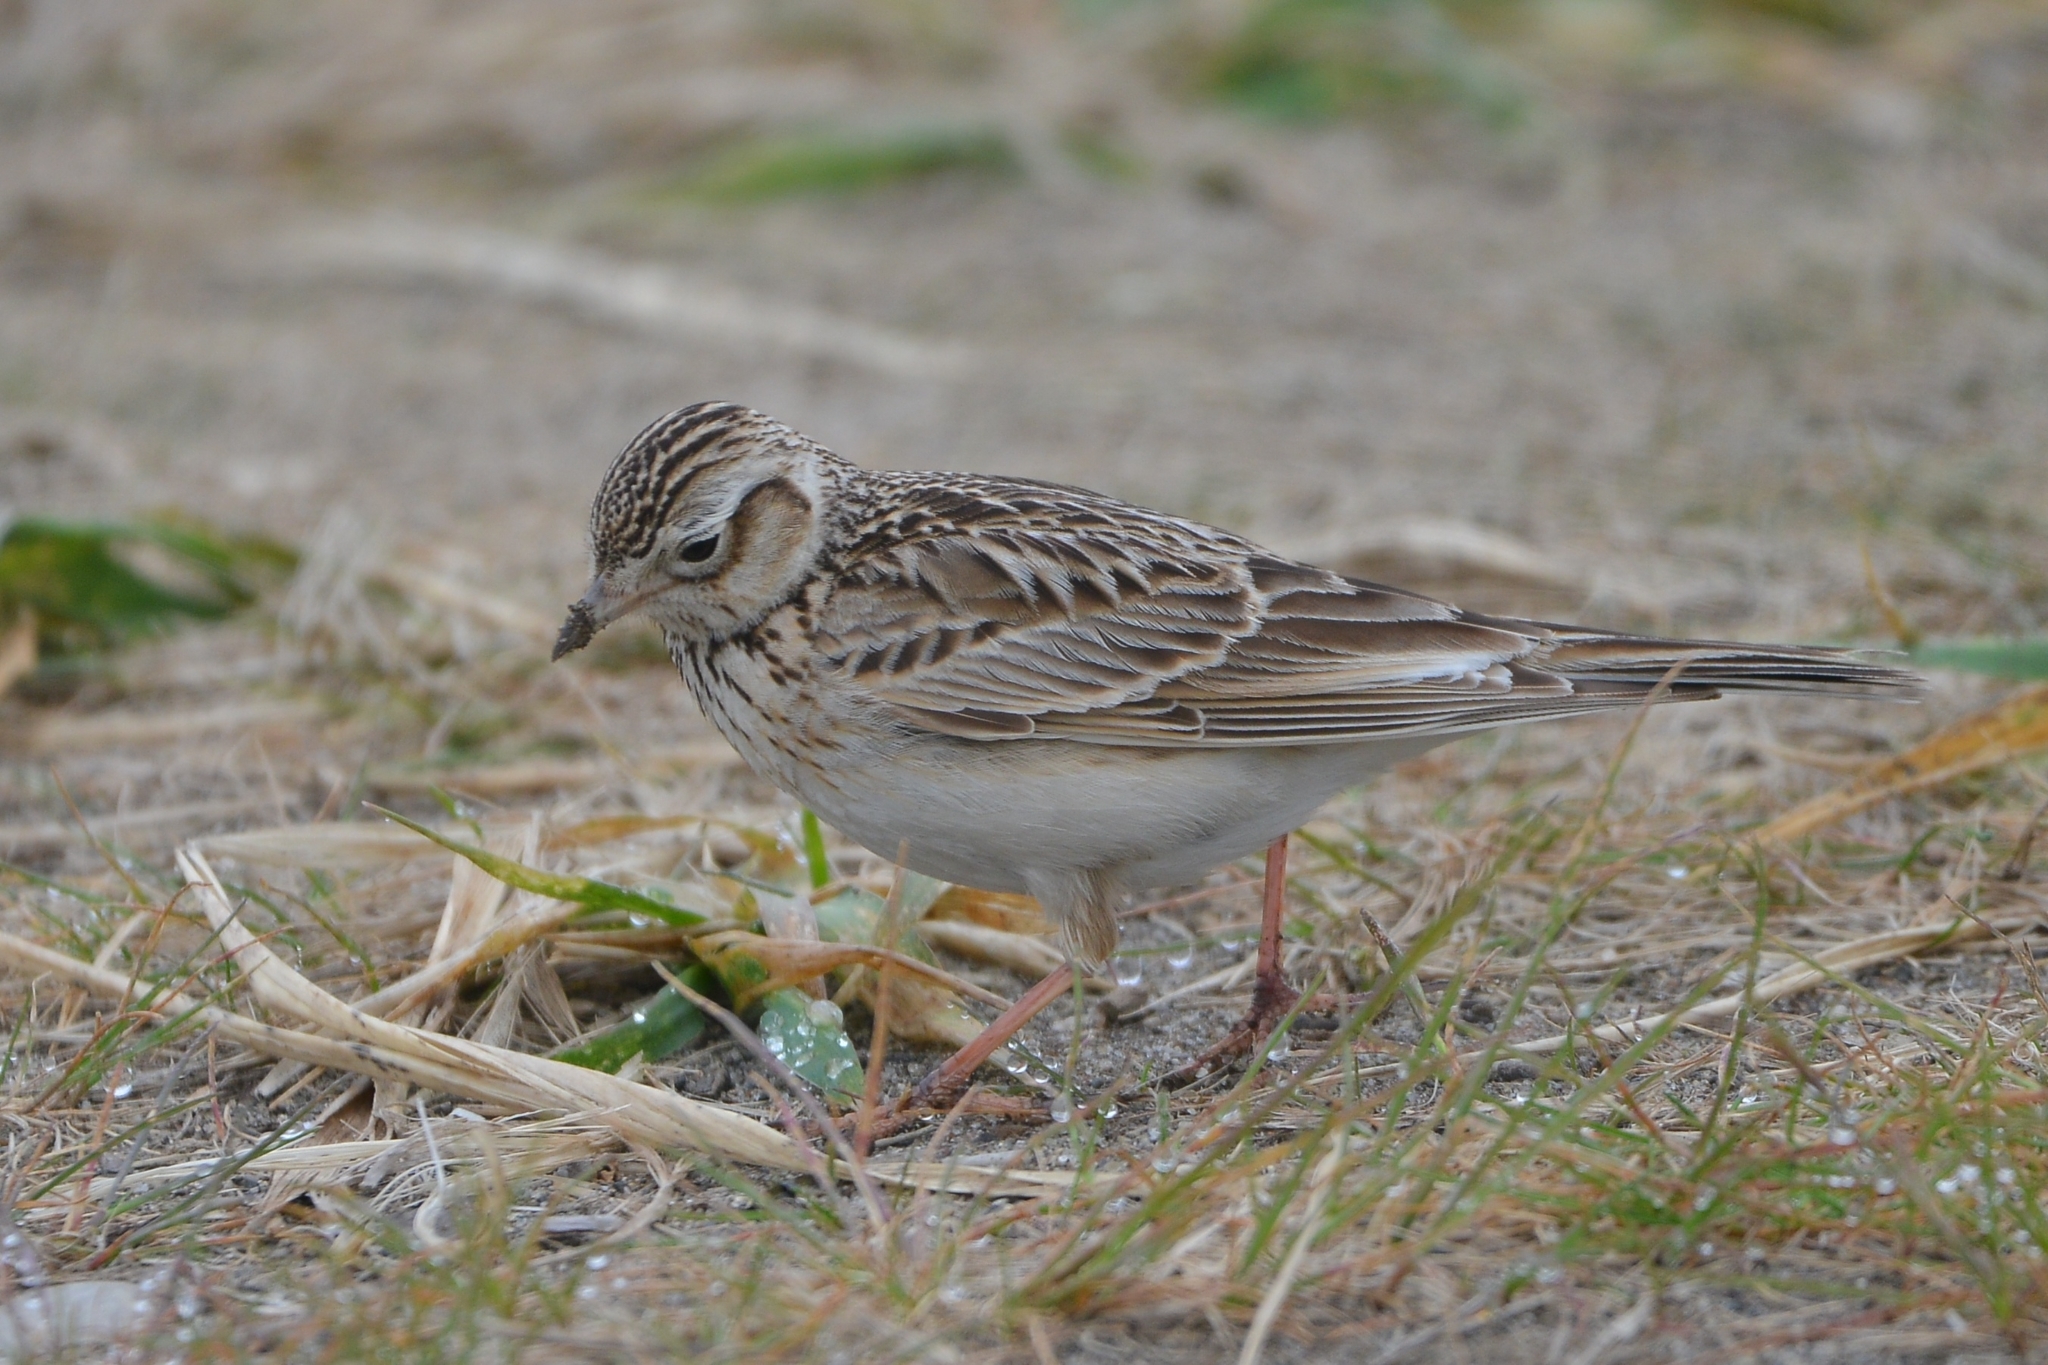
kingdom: Animalia
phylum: Chordata
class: Aves
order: Passeriformes
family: Alaudidae
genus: Alauda
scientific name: Alauda arvensis
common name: Eurasian skylark
